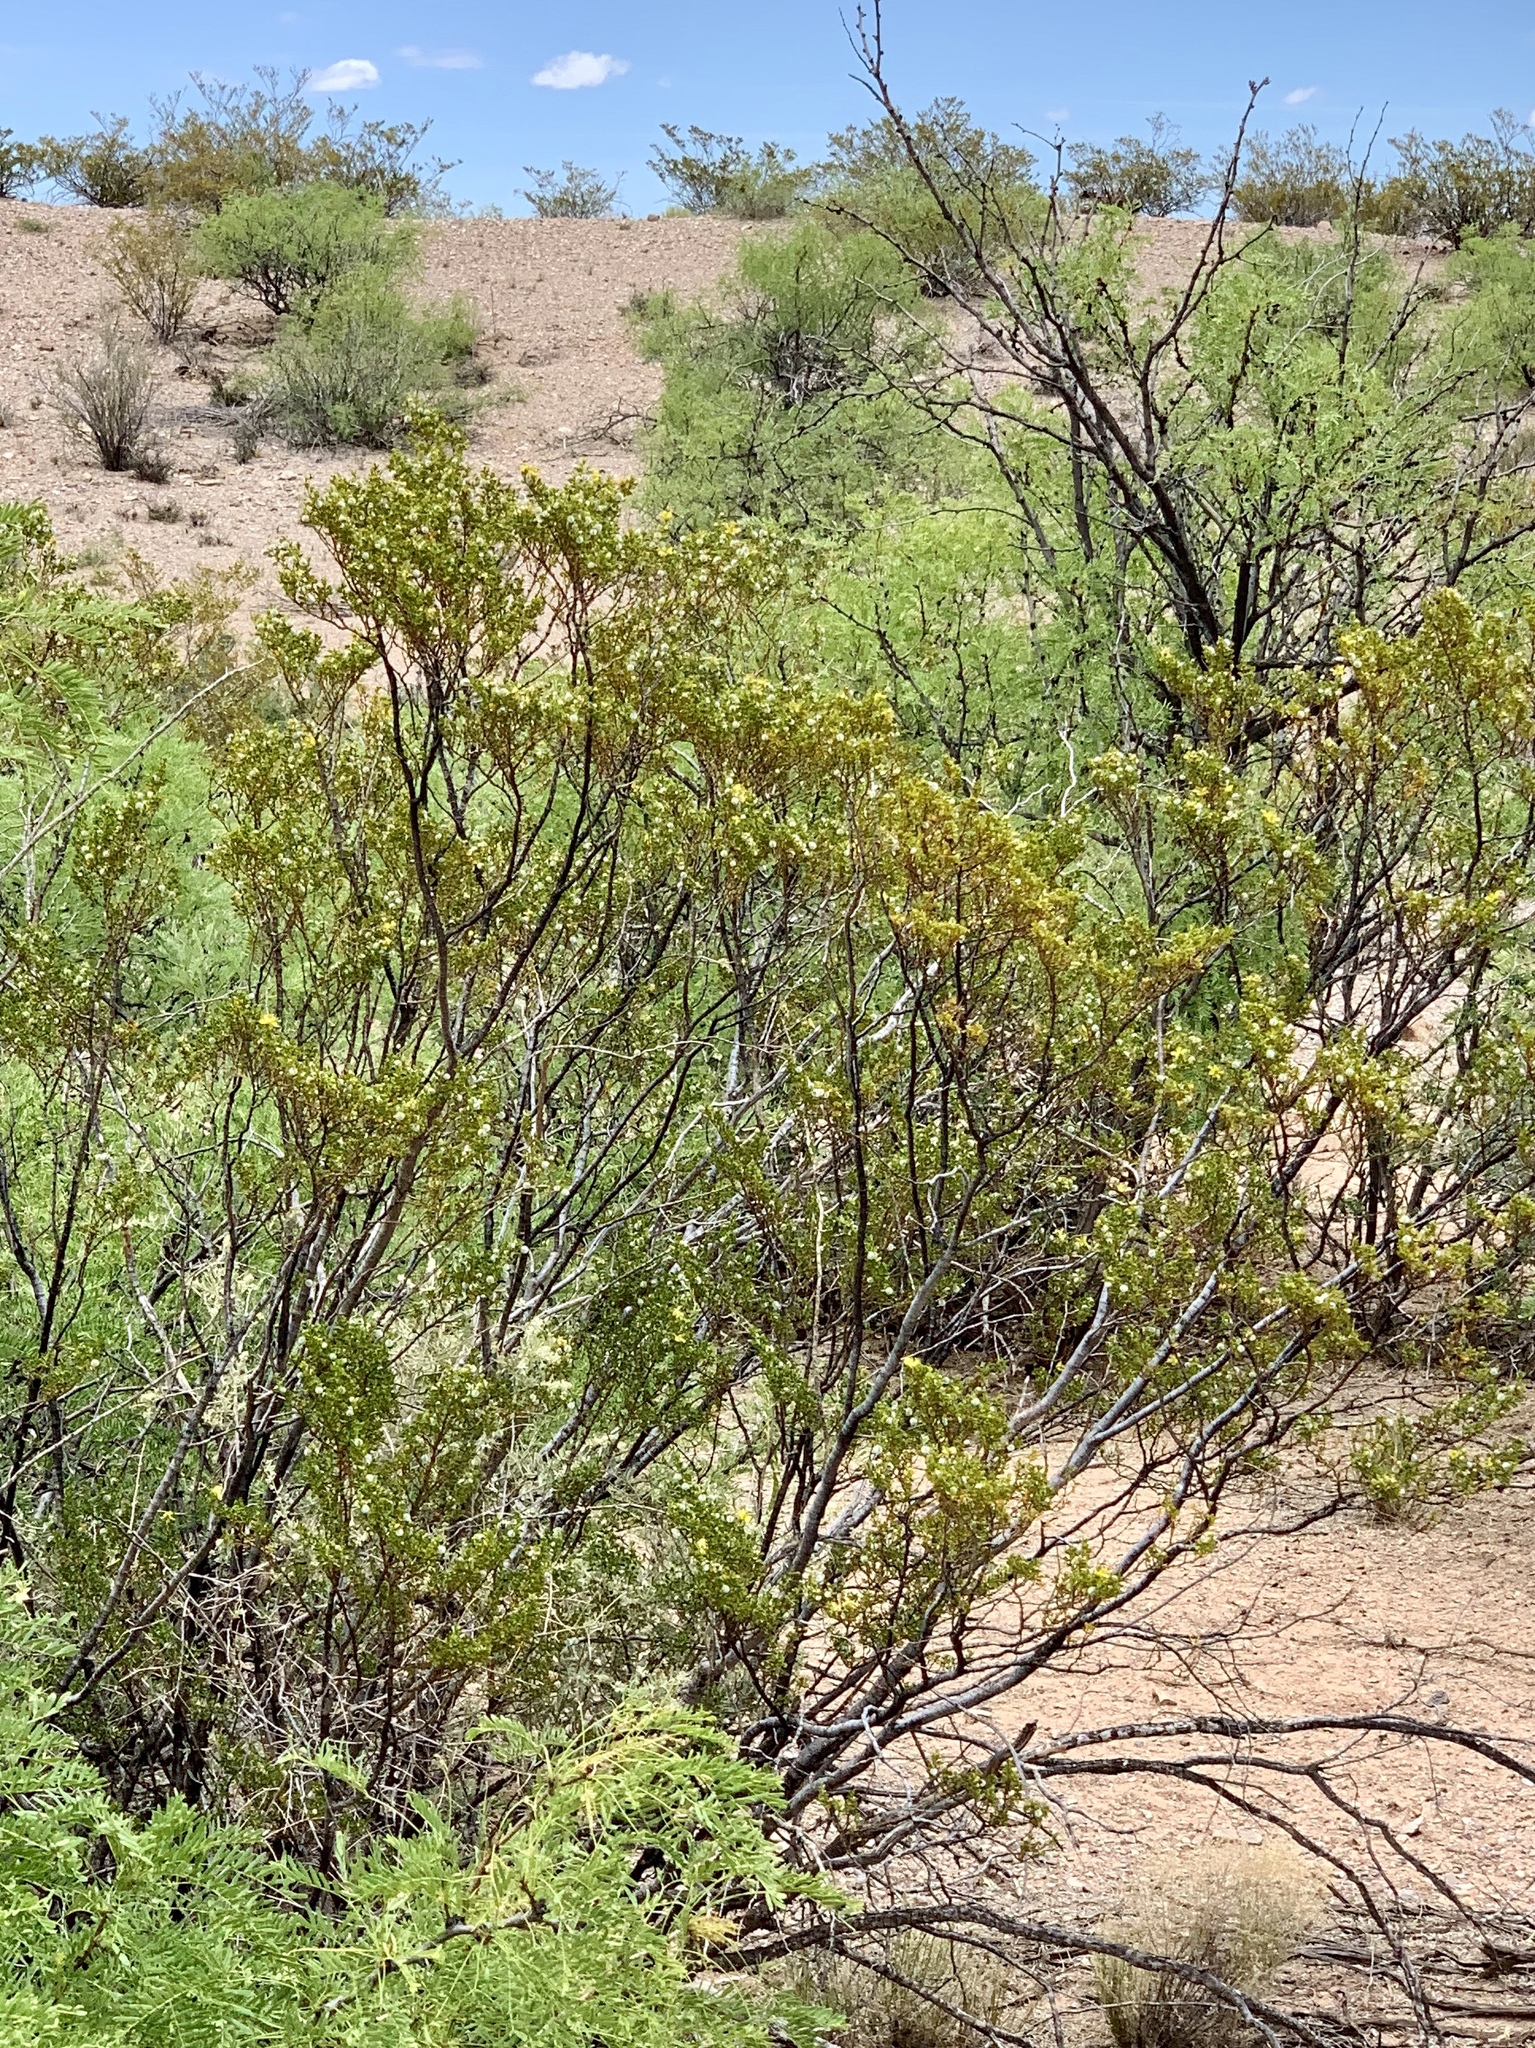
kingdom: Plantae
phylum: Tracheophyta
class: Magnoliopsida
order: Zygophyllales
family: Zygophyllaceae
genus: Larrea
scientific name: Larrea tridentata
